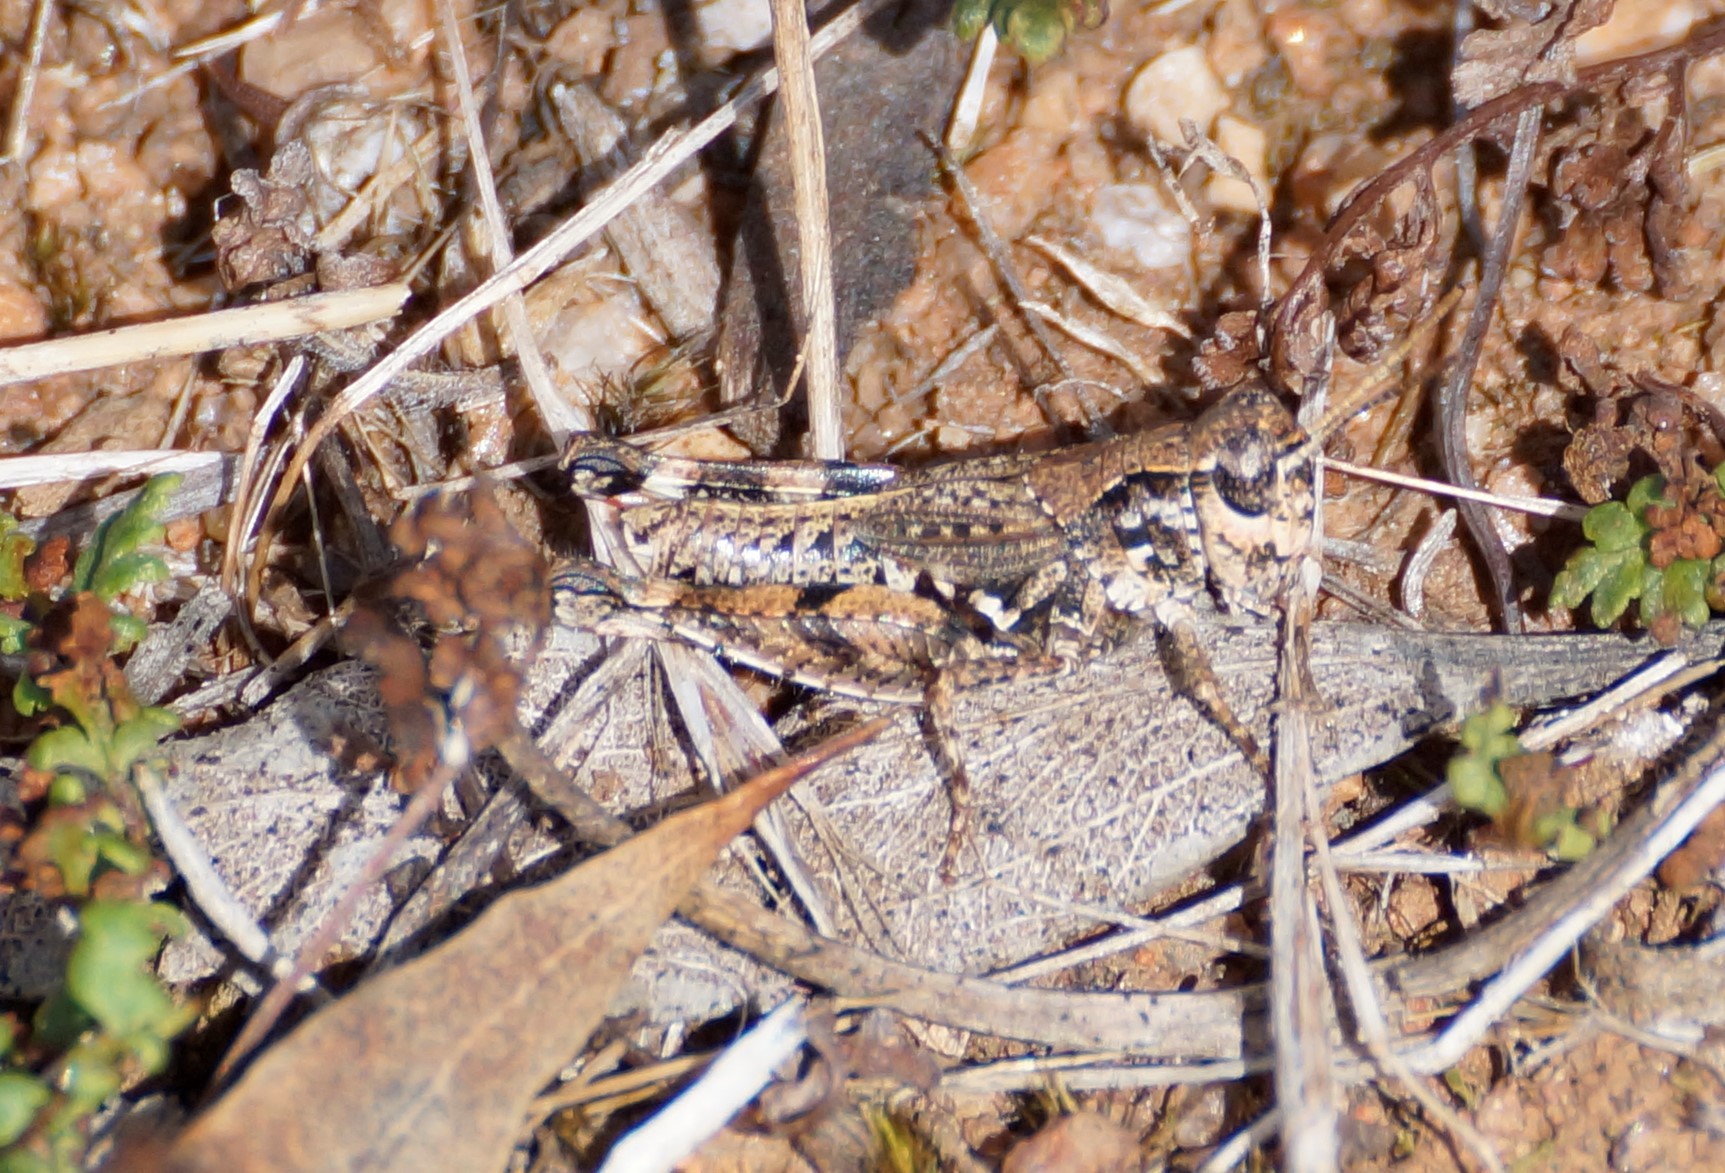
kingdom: Animalia
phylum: Arthropoda
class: Insecta
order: Orthoptera
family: Acrididae
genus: Phaulacridium
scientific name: Phaulacridium vittatum
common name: Wingless grasshopper
